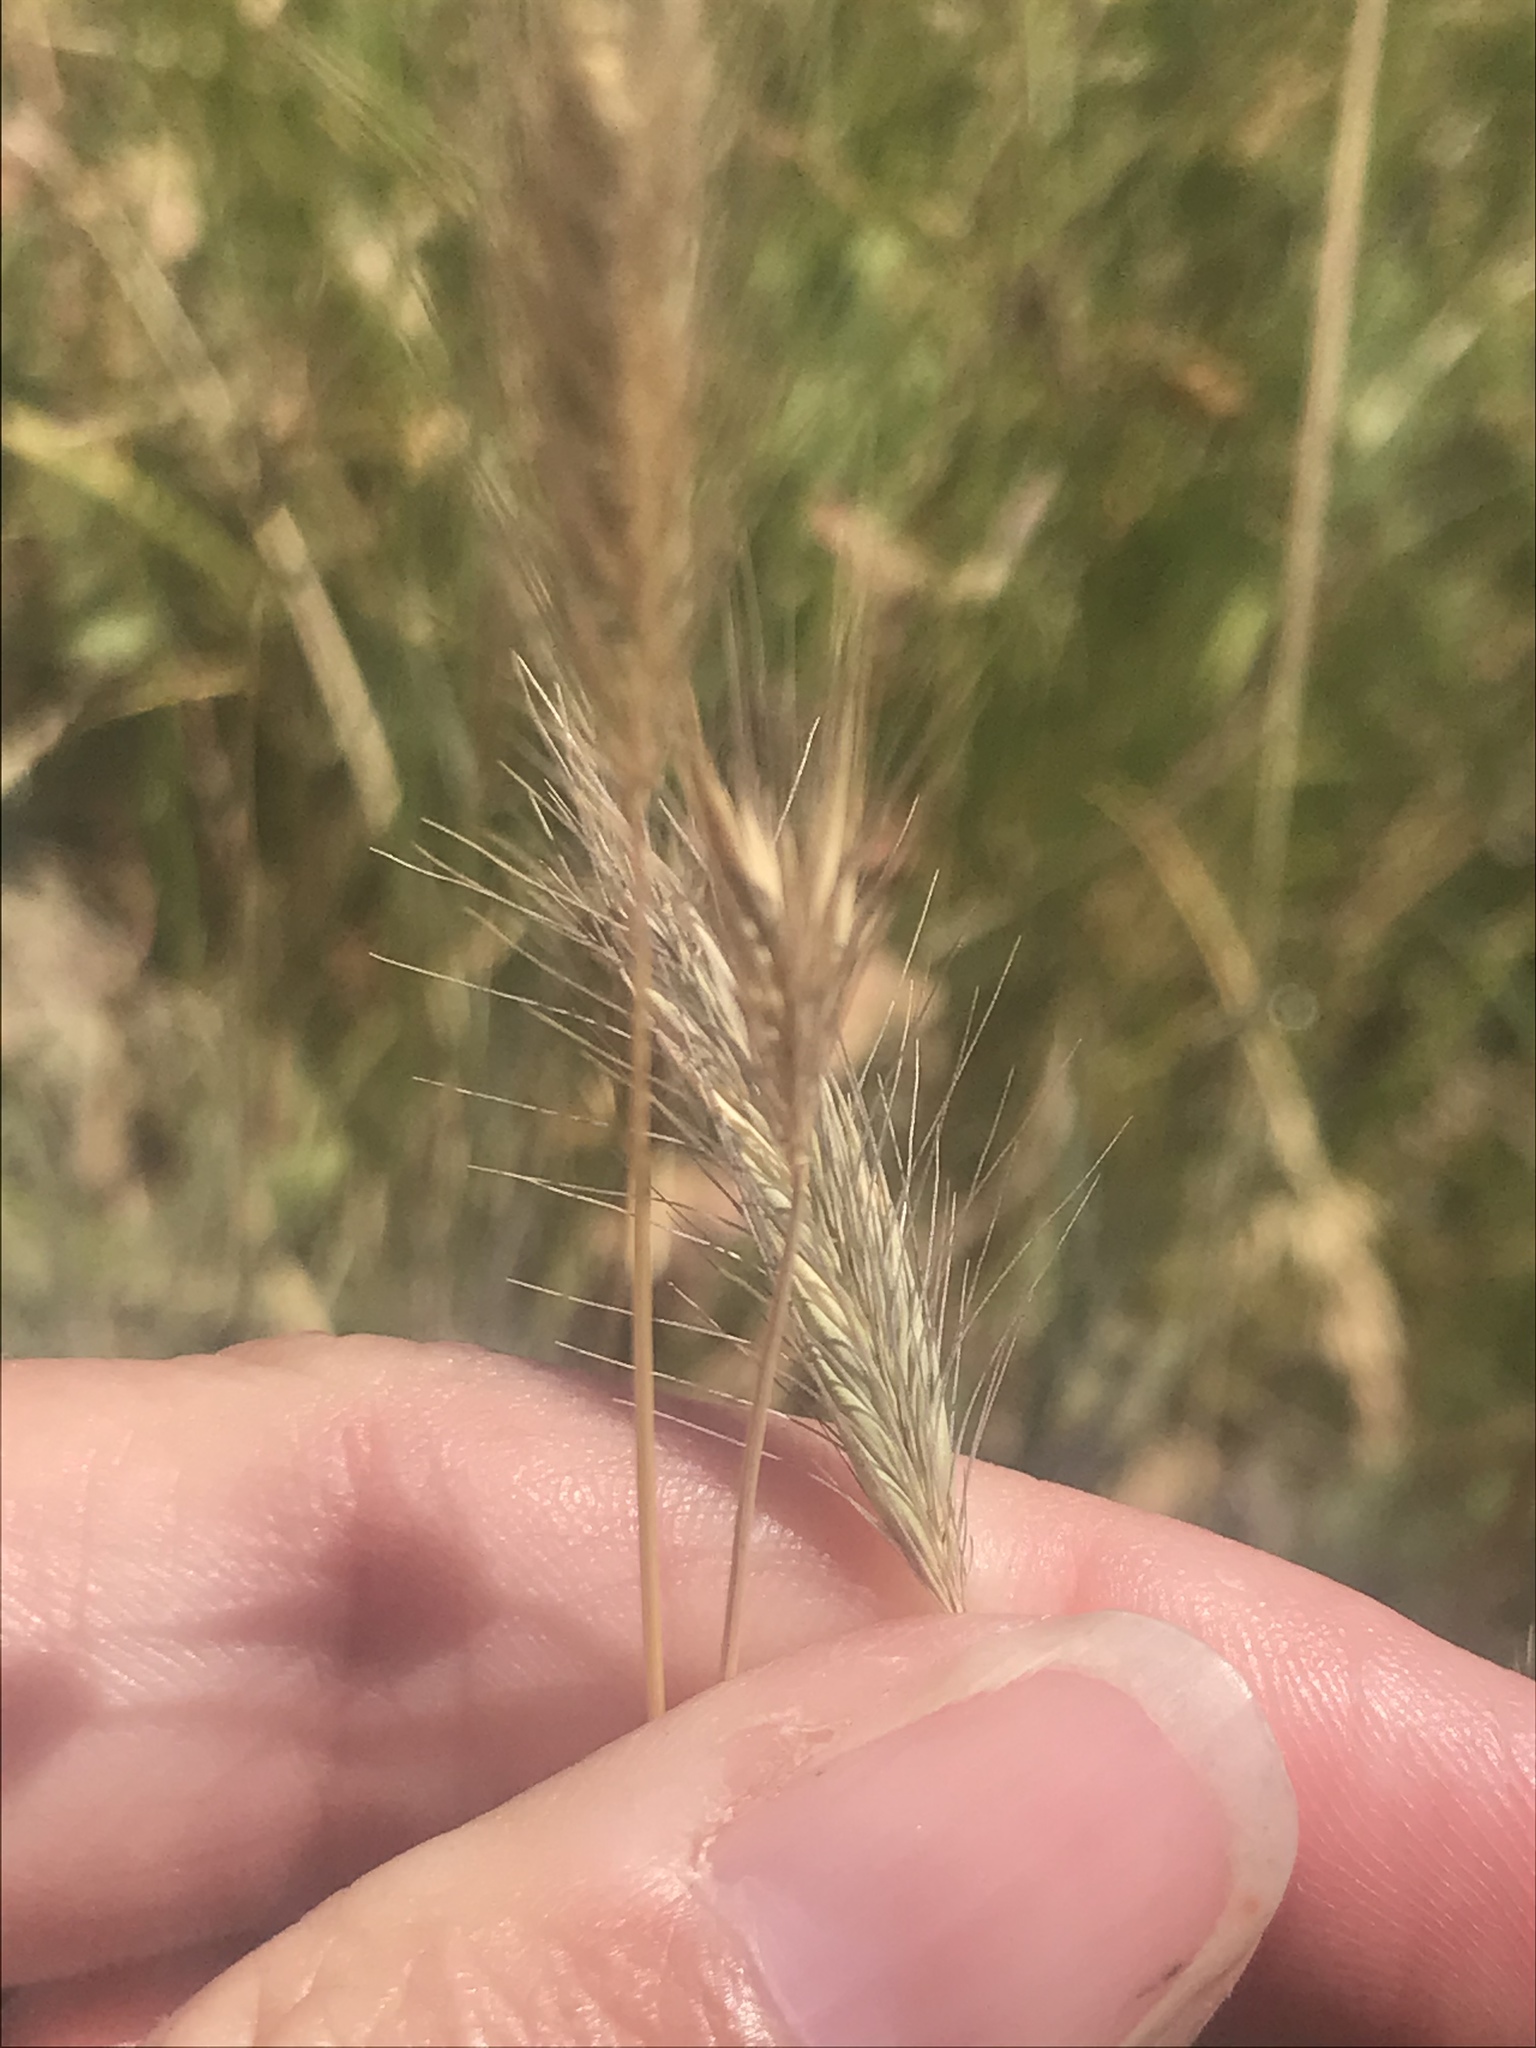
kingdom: Plantae
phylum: Tracheophyta
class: Liliopsida
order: Poales
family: Poaceae
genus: Hordeum
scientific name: Hordeum brachyantherum
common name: Meadow barley
